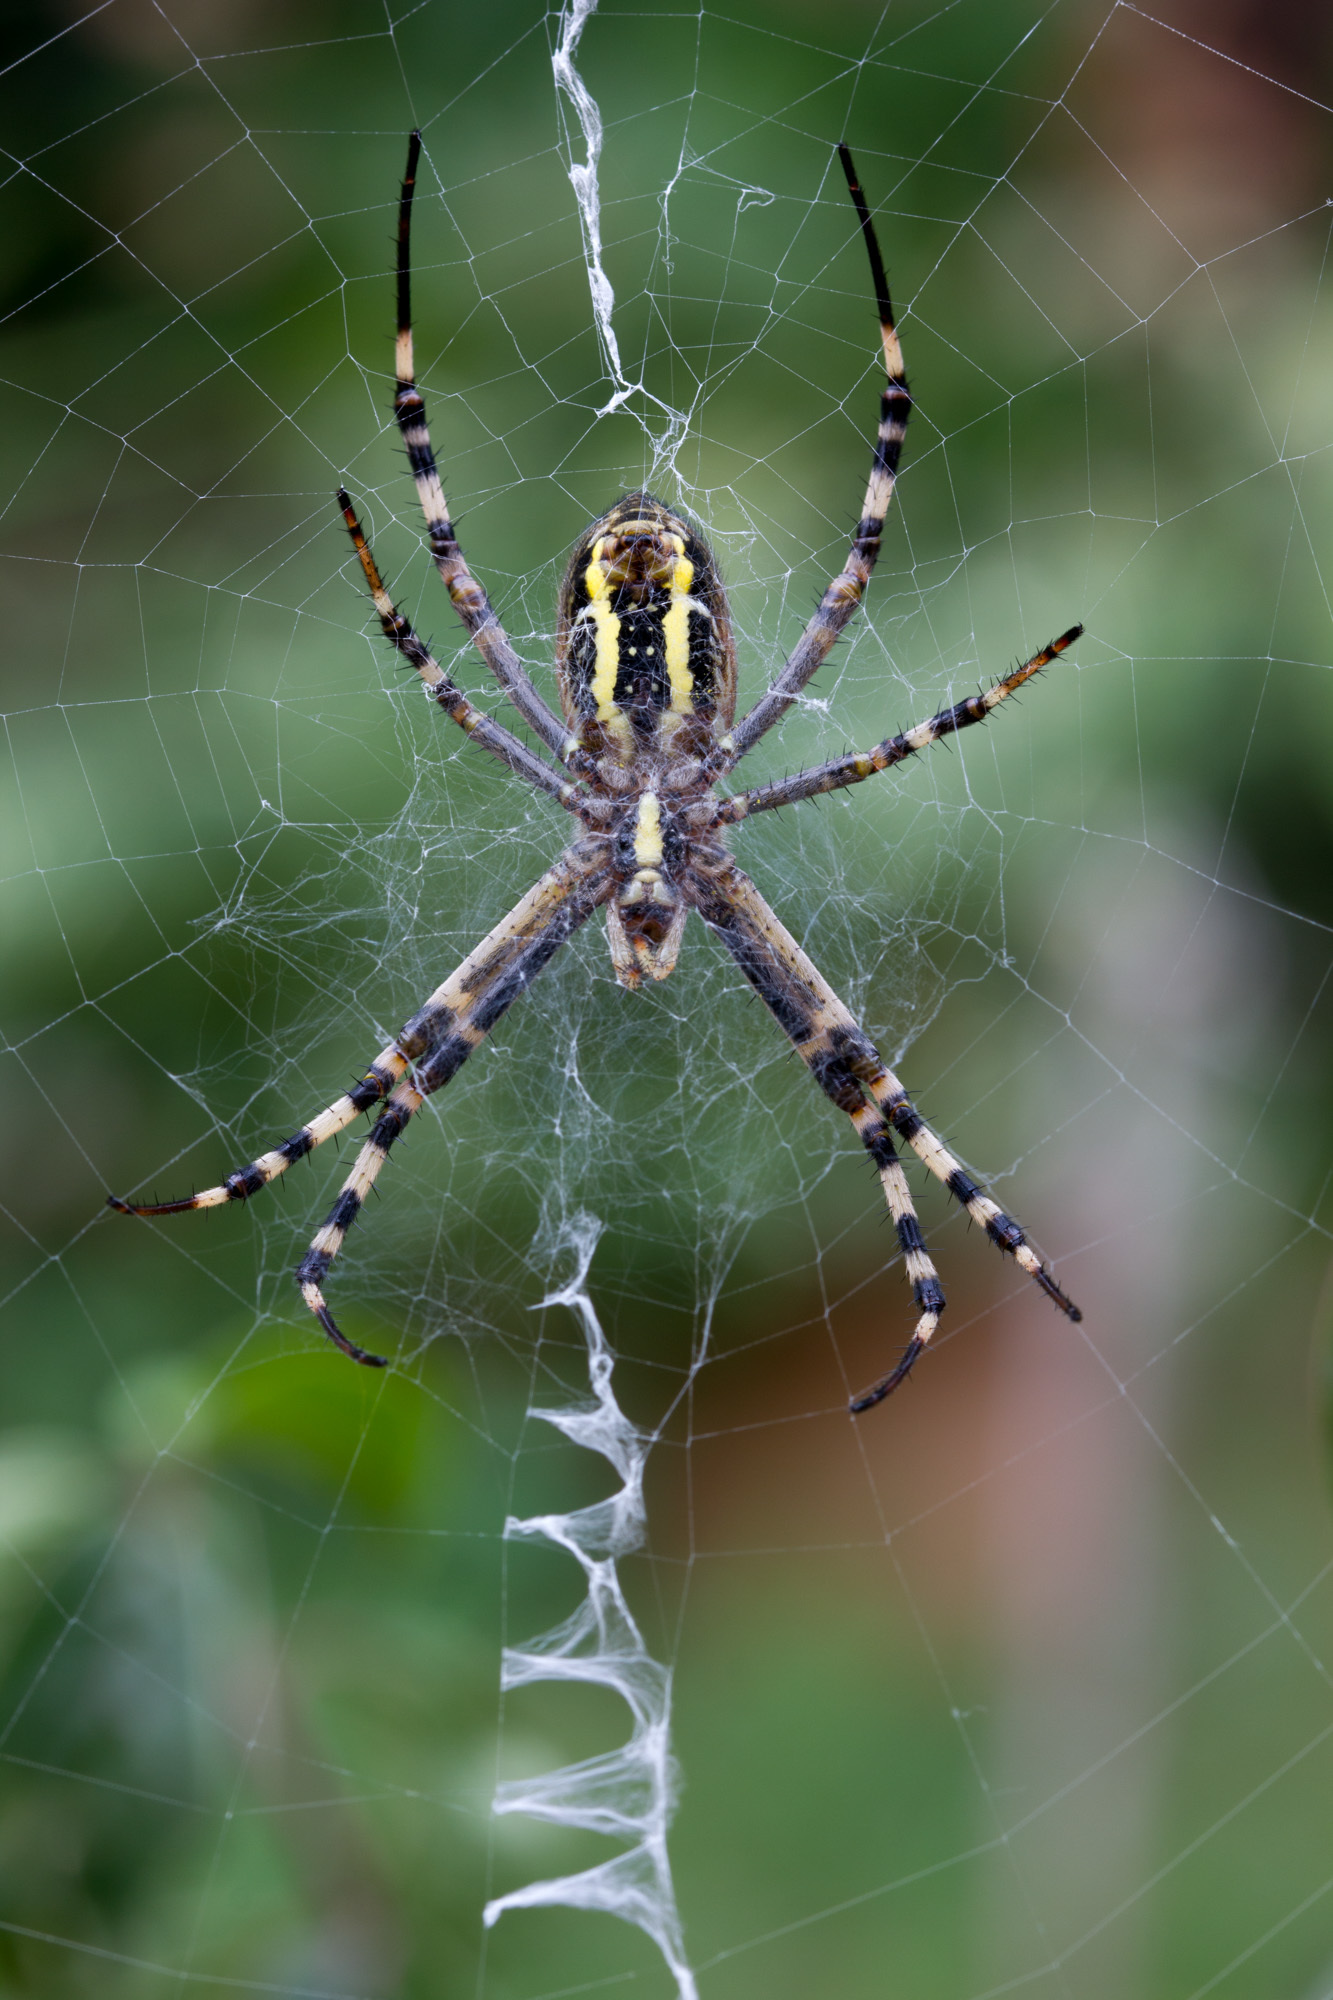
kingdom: Animalia
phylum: Arthropoda
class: Arachnida
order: Araneae
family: Araneidae
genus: Argiope
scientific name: Argiope bruennichi
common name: Wasp spider
